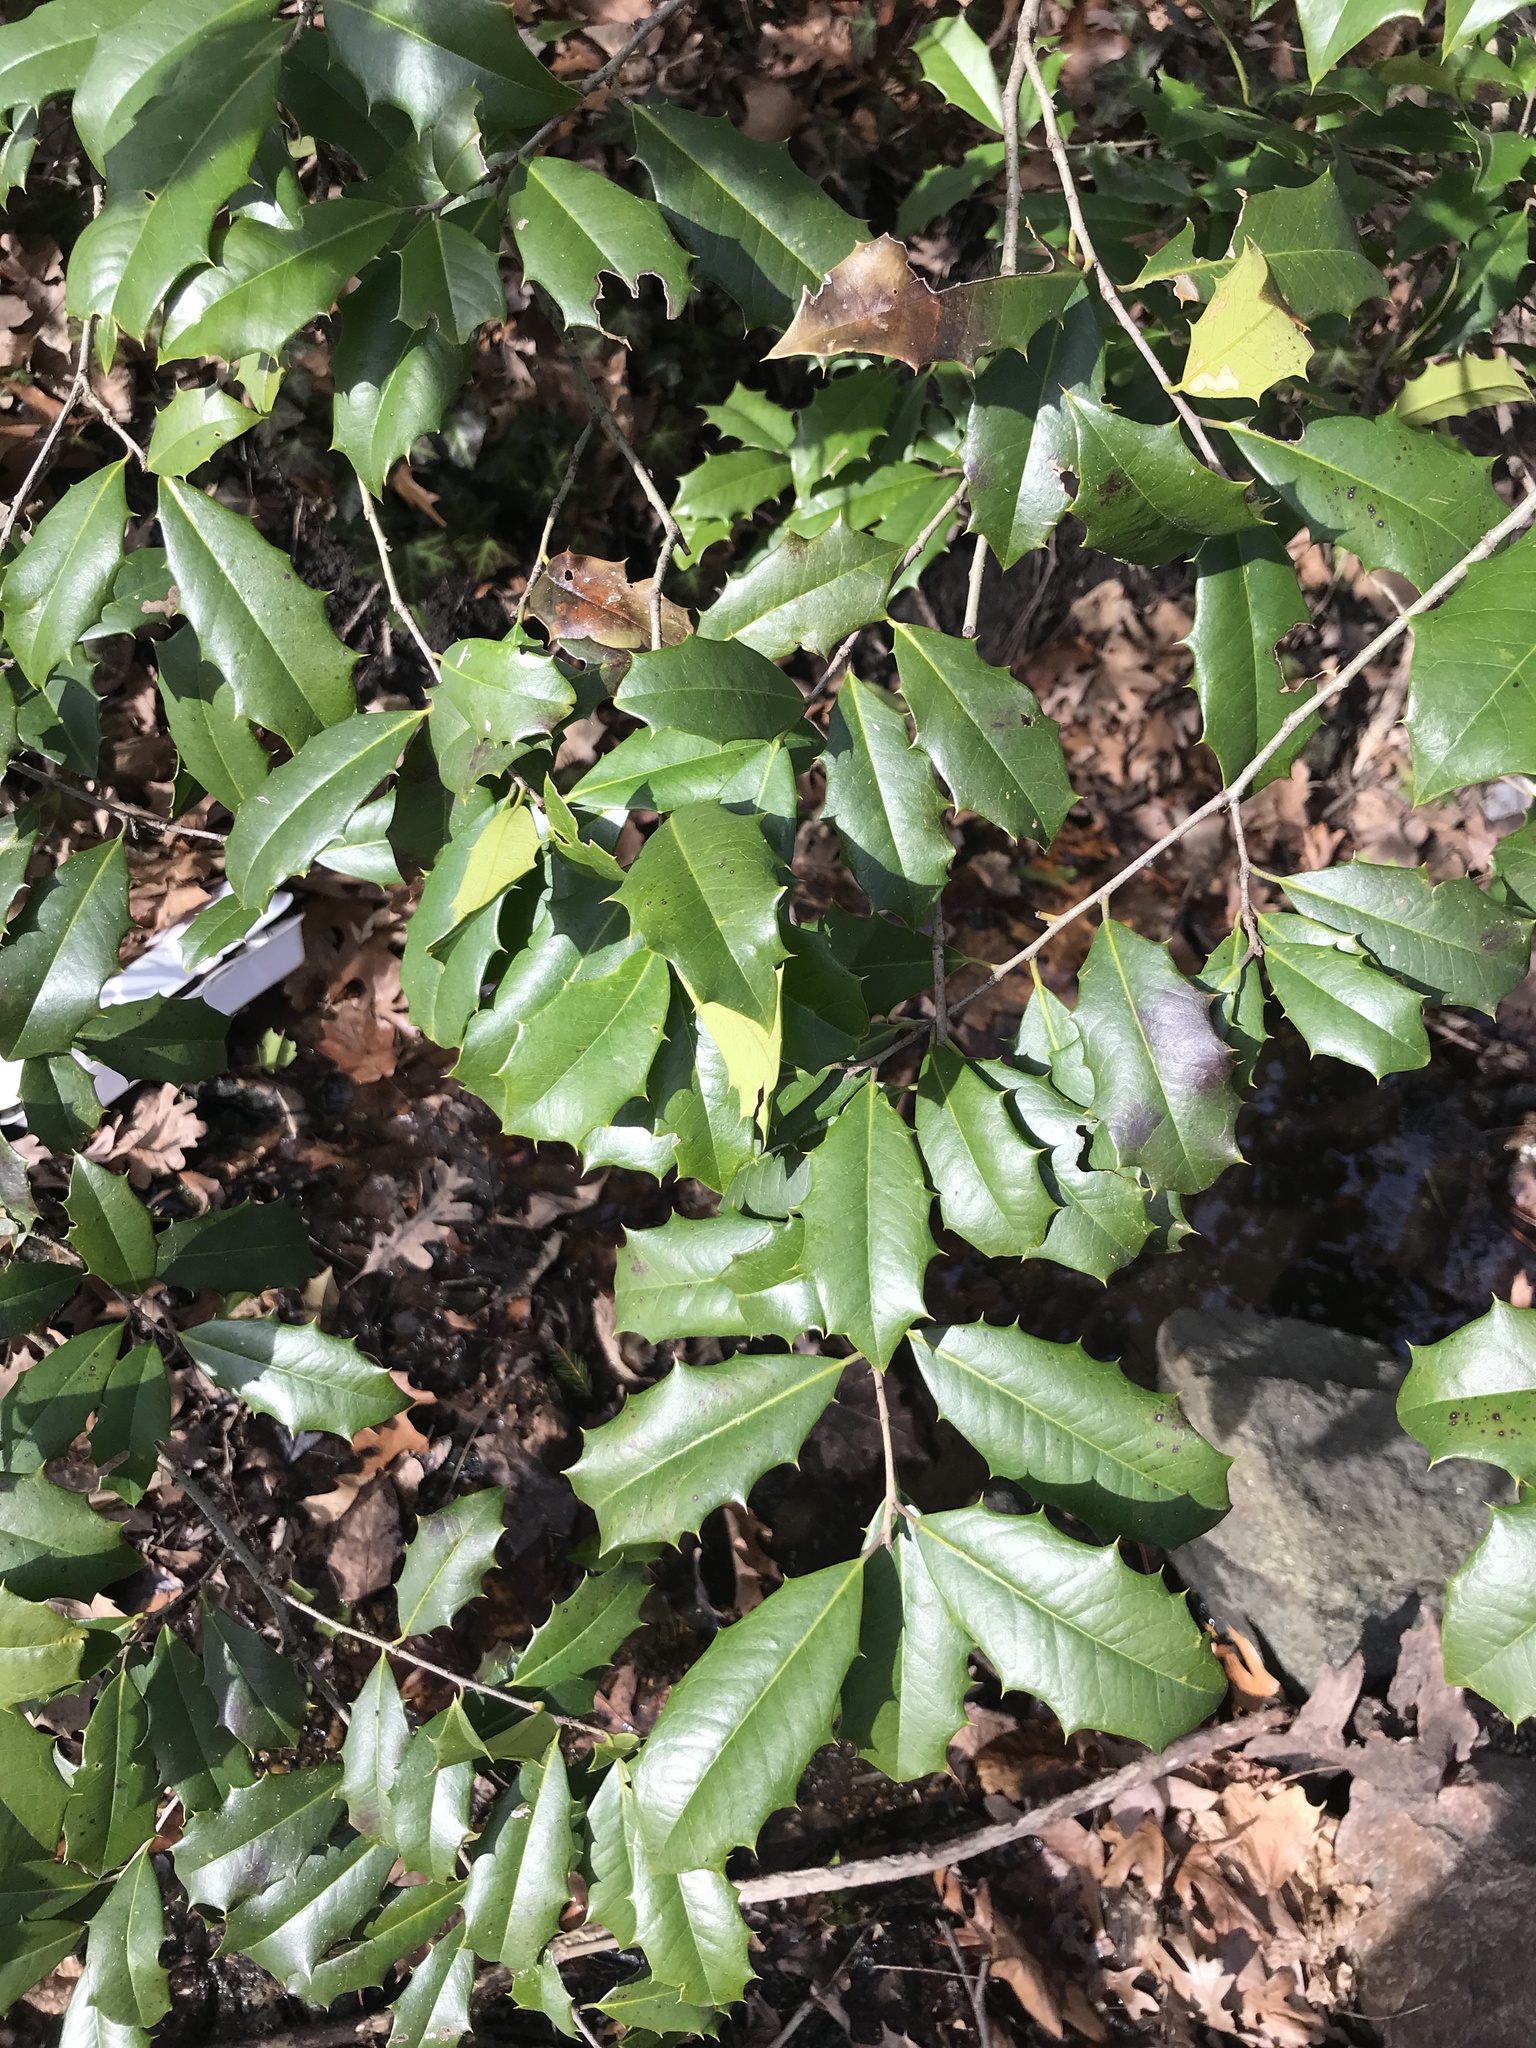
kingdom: Plantae
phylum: Tracheophyta
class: Magnoliopsida
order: Aquifoliales
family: Aquifoliaceae
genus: Ilex
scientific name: Ilex opaca
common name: American holly
